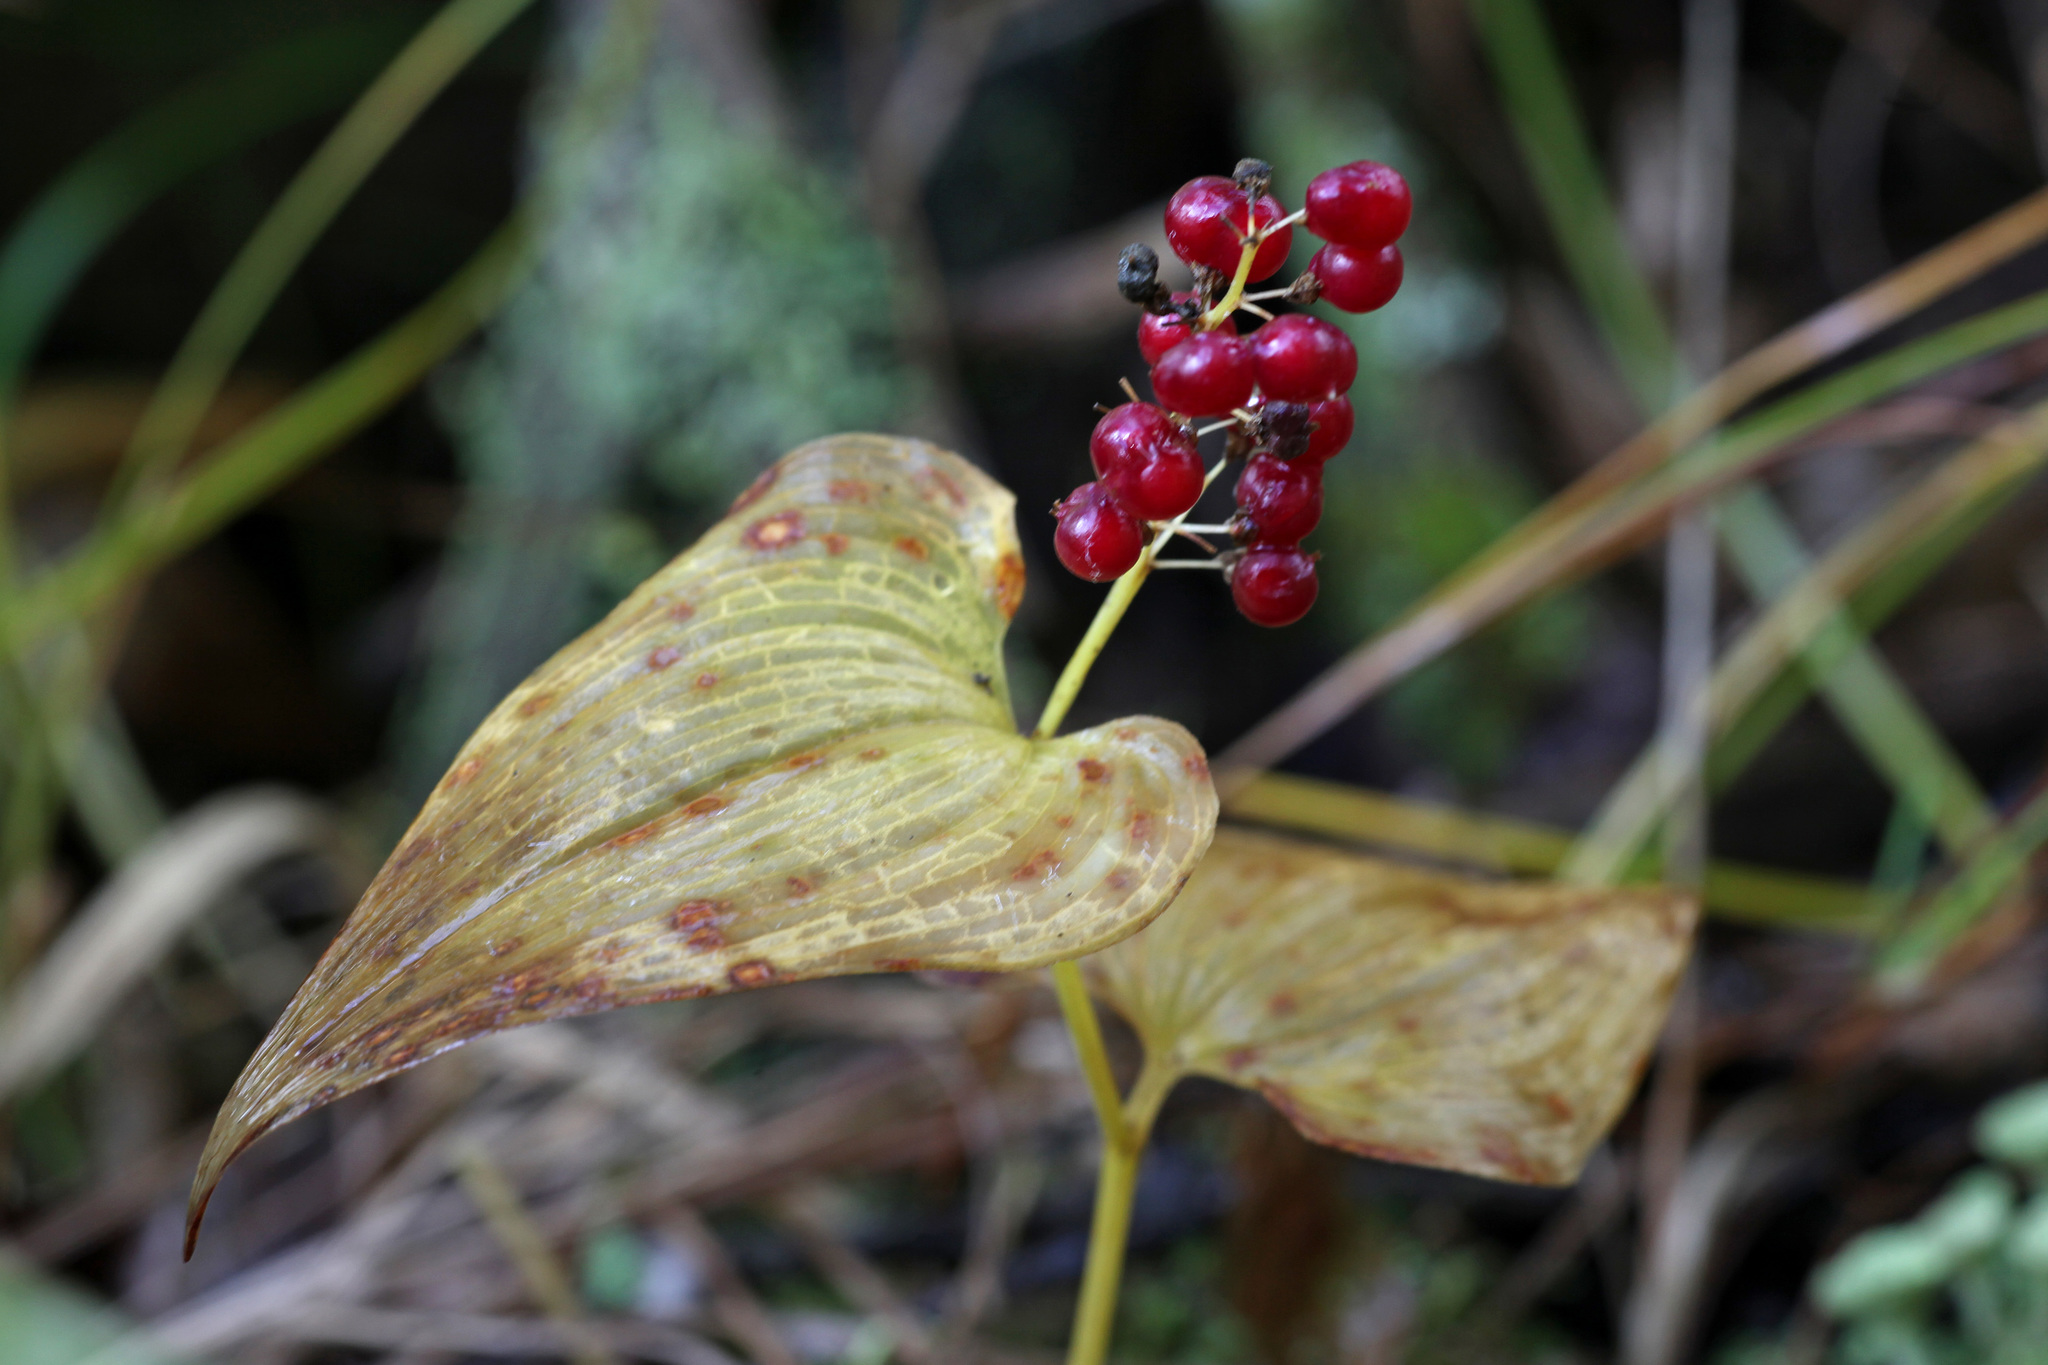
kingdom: Plantae
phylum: Tracheophyta
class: Liliopsida
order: Asparagales
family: Asparagaceae
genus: Maianthemum
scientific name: Maianthemum bifolium
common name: May lily
